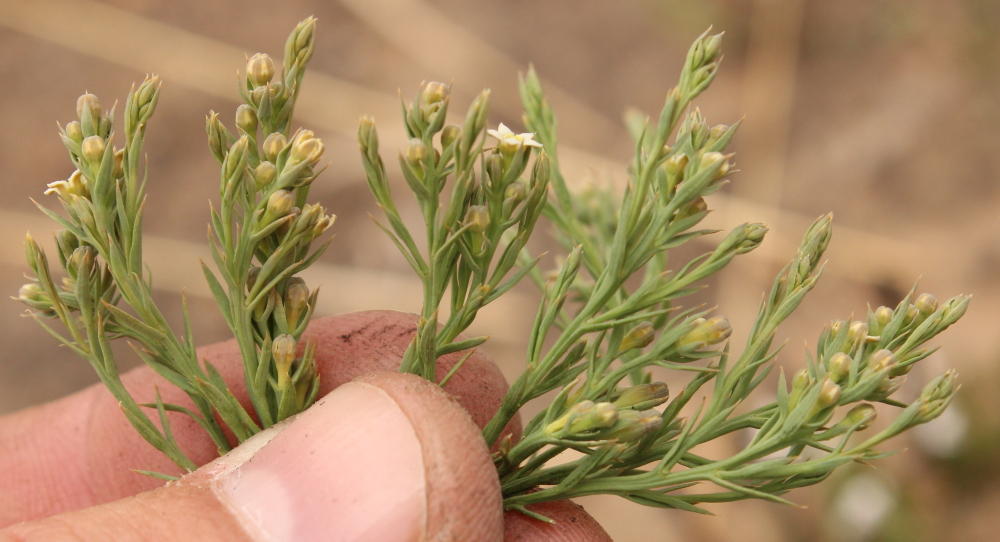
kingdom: Plantae
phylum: Tracheophyta
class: Magnoliopsida
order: Santalales
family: Thesiaceae
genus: Thesium
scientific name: Thesium costatum
